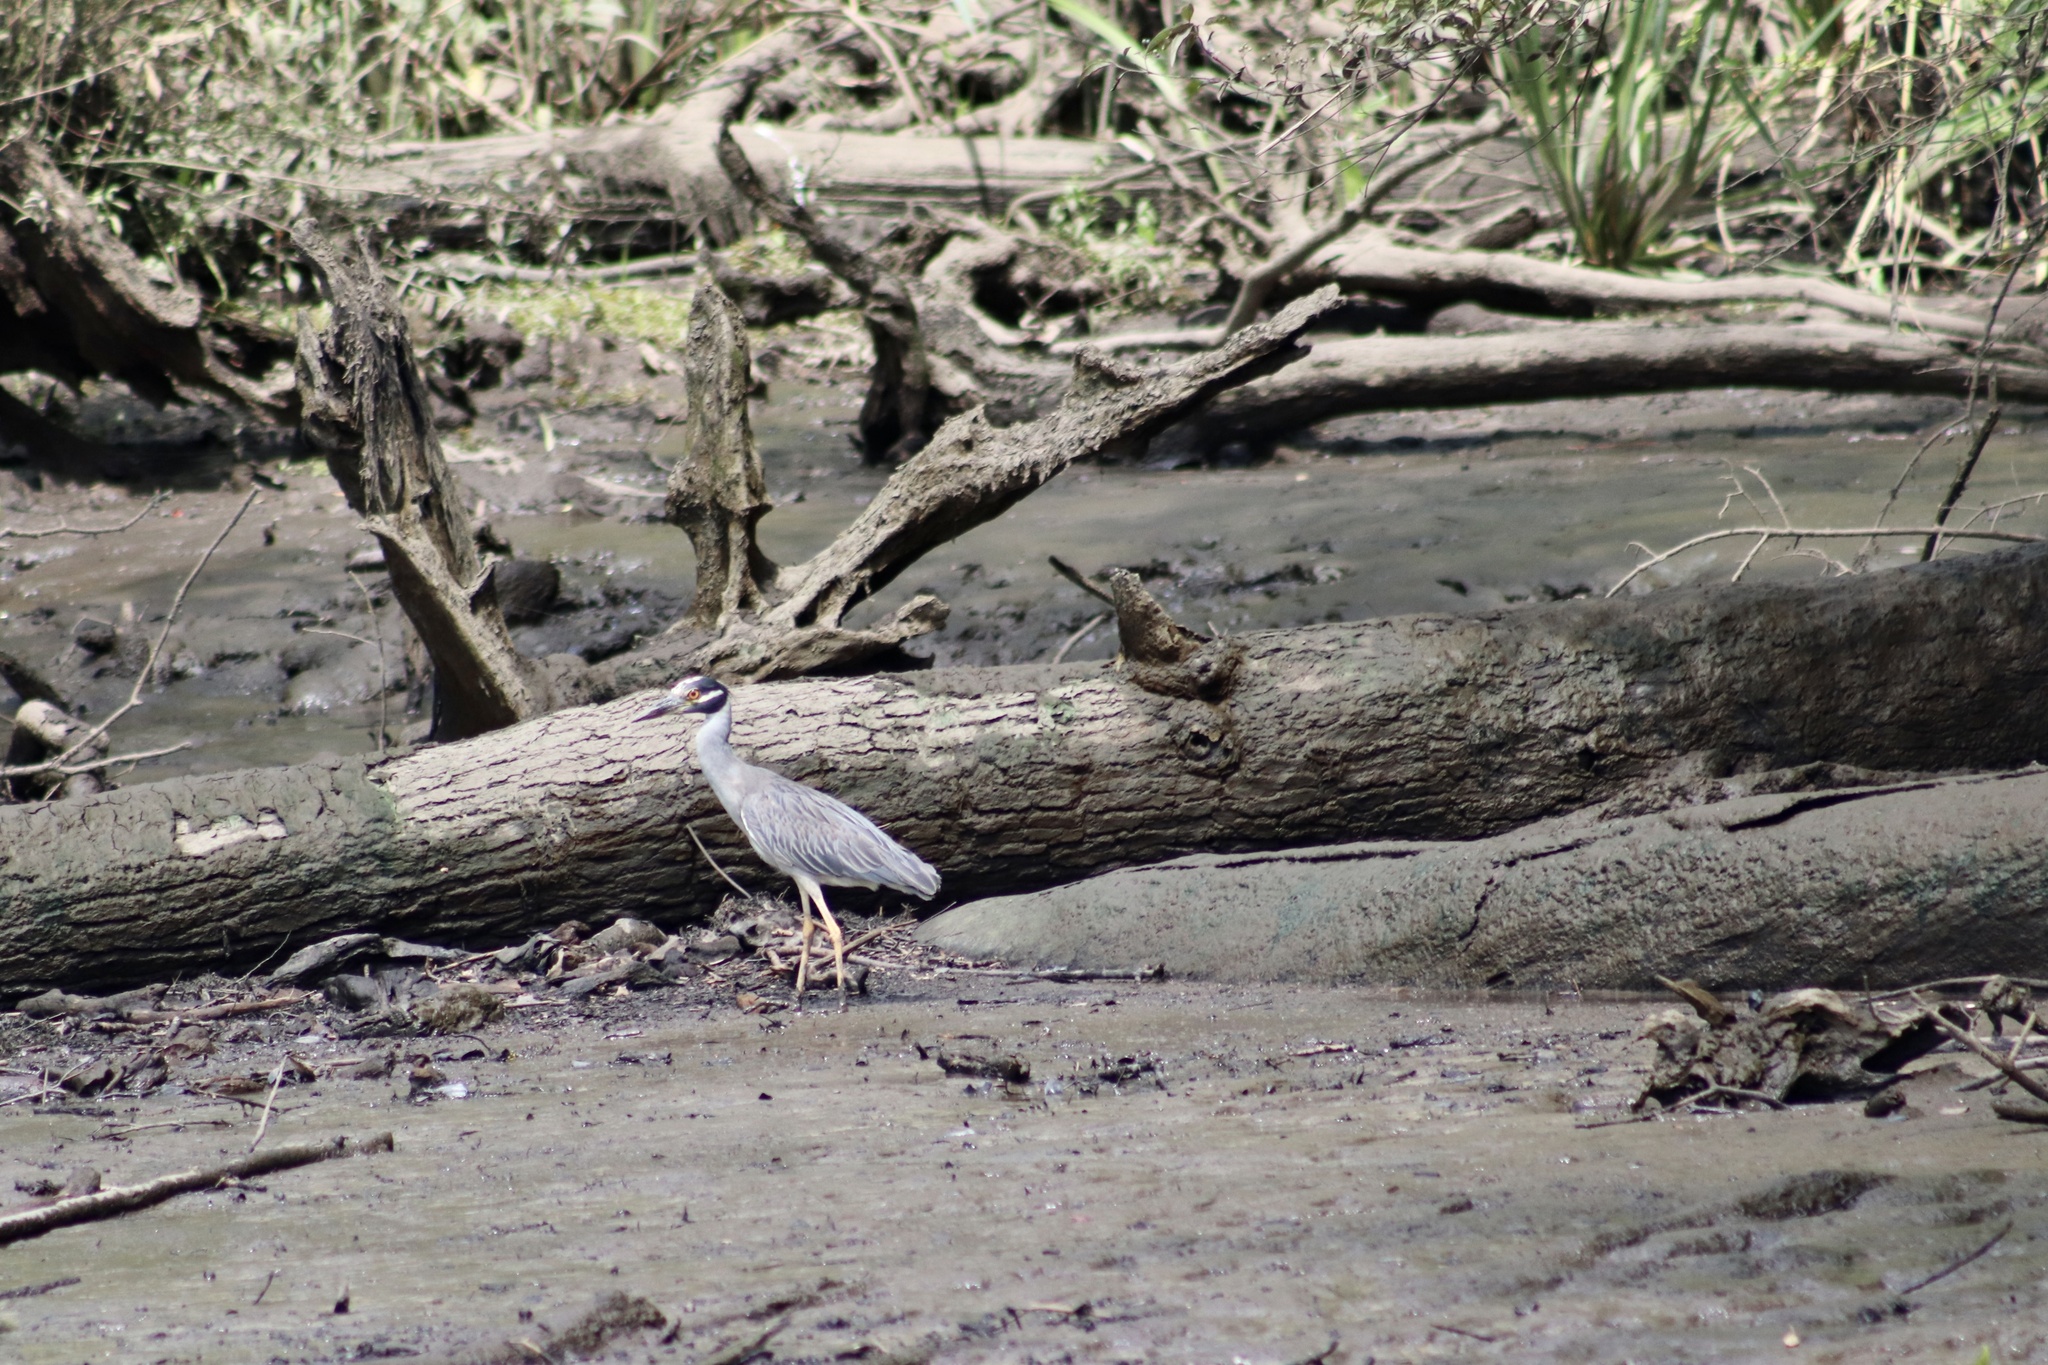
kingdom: Animalia
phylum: Chordata
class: Aves
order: Pelecaniformes
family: Ardeidae
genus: Nyctanassa
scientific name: Nyctanassa violacea
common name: Yellow-crowned night heron
